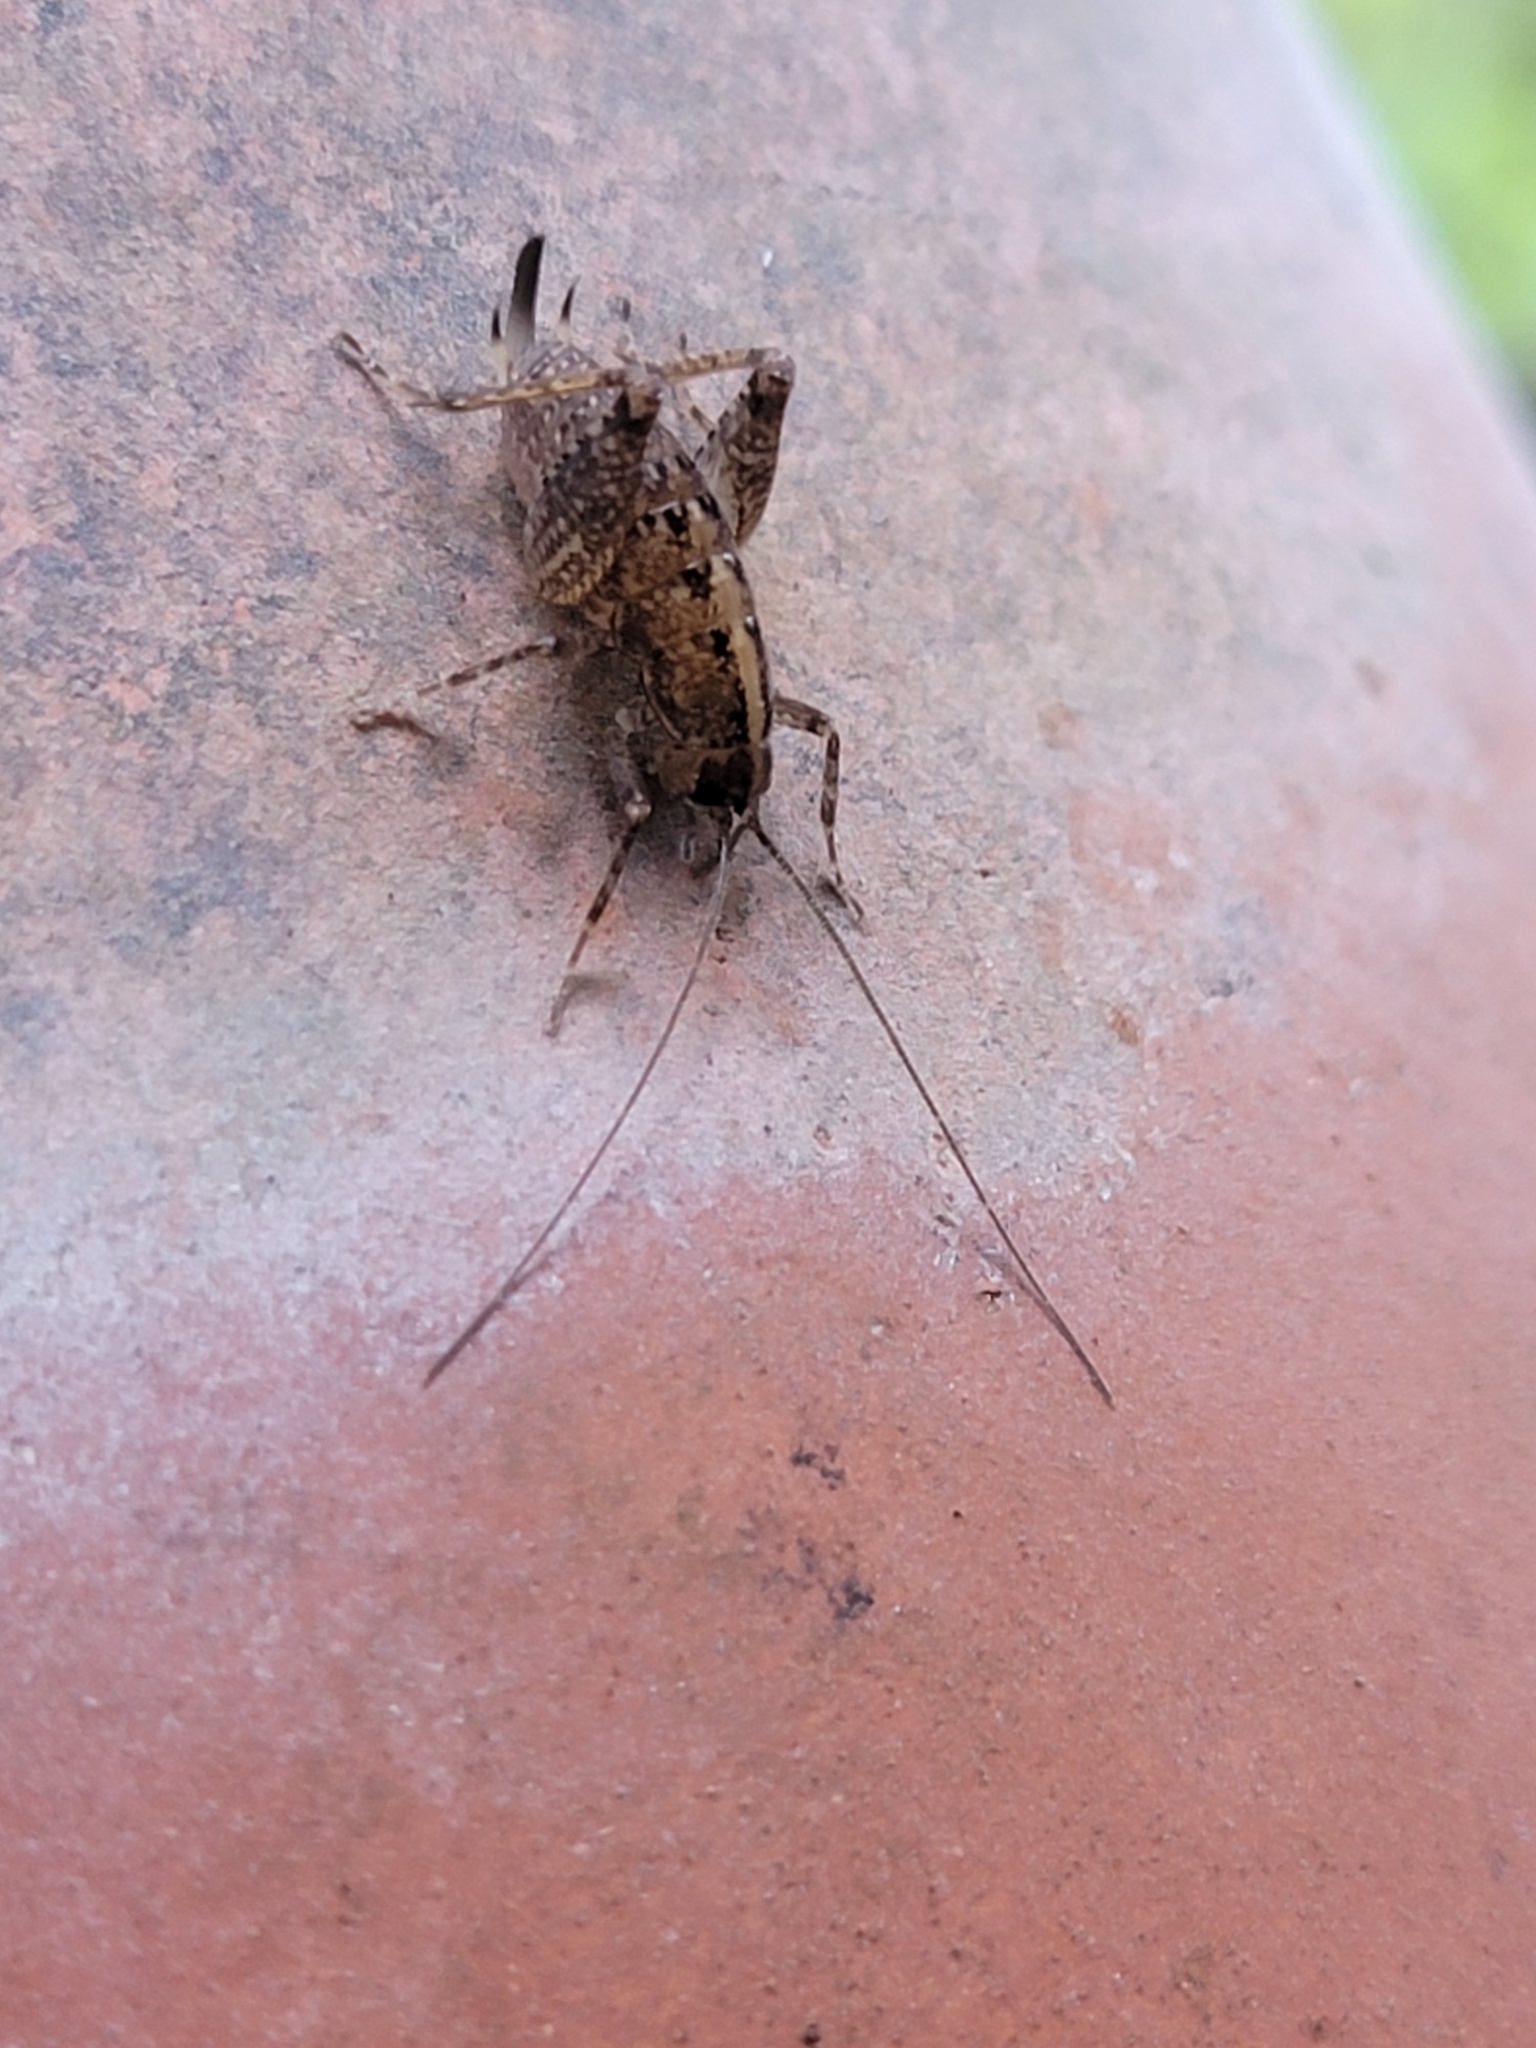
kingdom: Animalia
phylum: Arthropoda
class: Insecta
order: Orthoptera
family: Rhaphidophoridae
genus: Pristoceuthophilus
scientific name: Pristoceuthophilus
